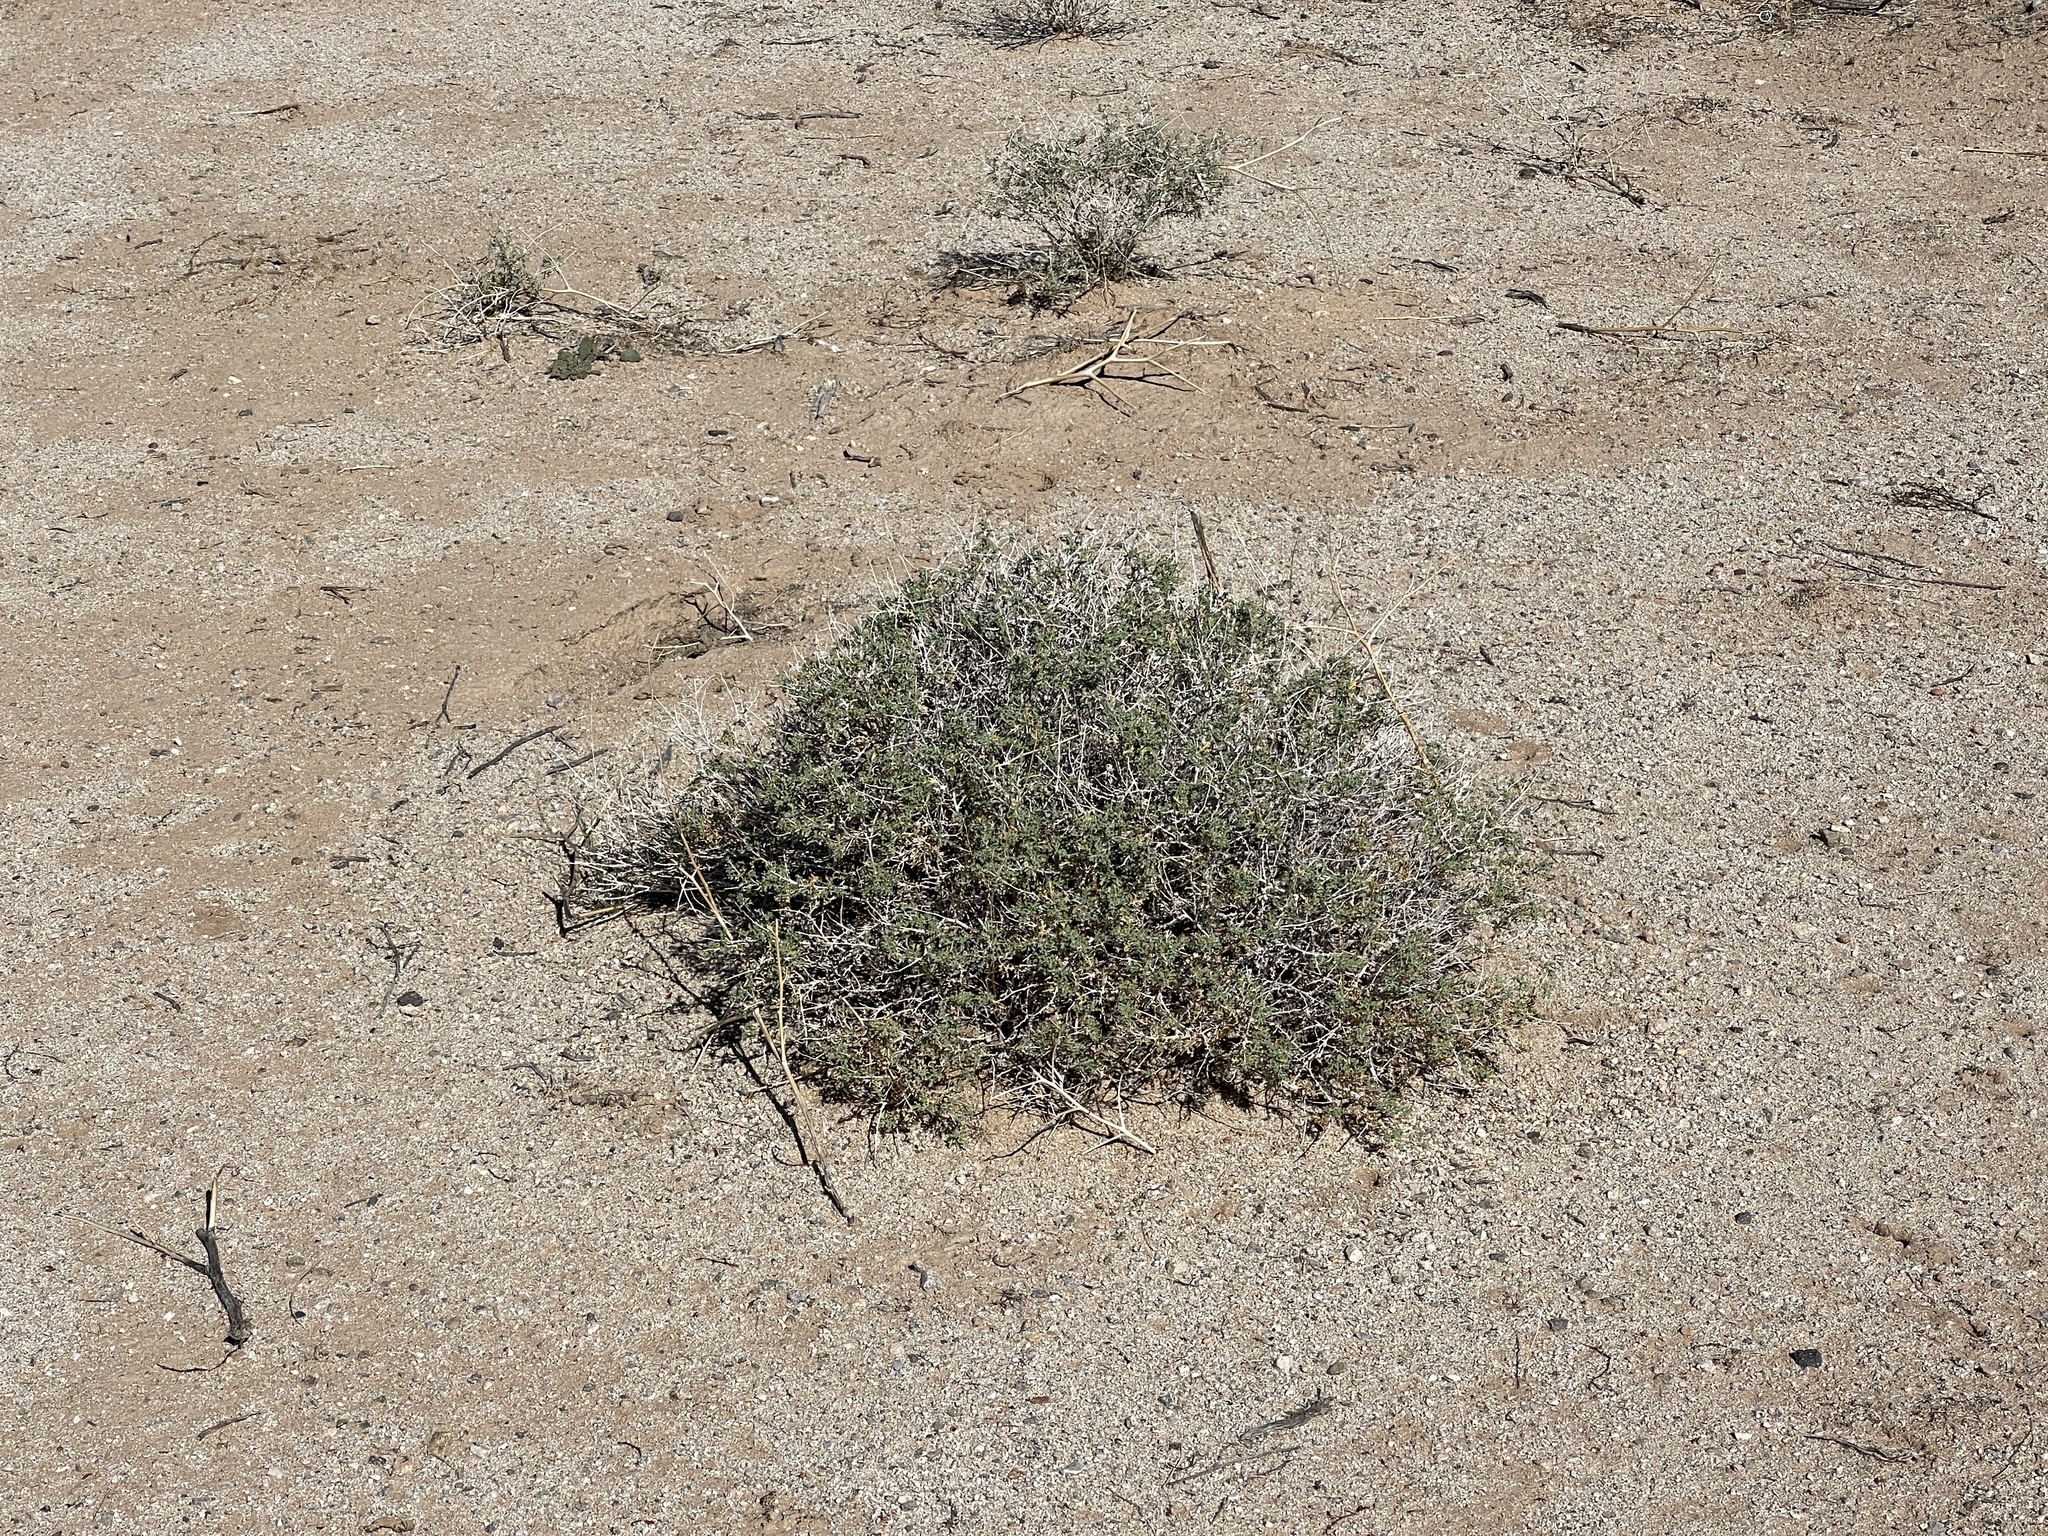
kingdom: Plantae
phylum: Tracheophyta
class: Magnoliopsida
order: Asterales
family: Asteraceae
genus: Ambrosia
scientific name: Ambrosia dumosa
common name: Bur-sage
